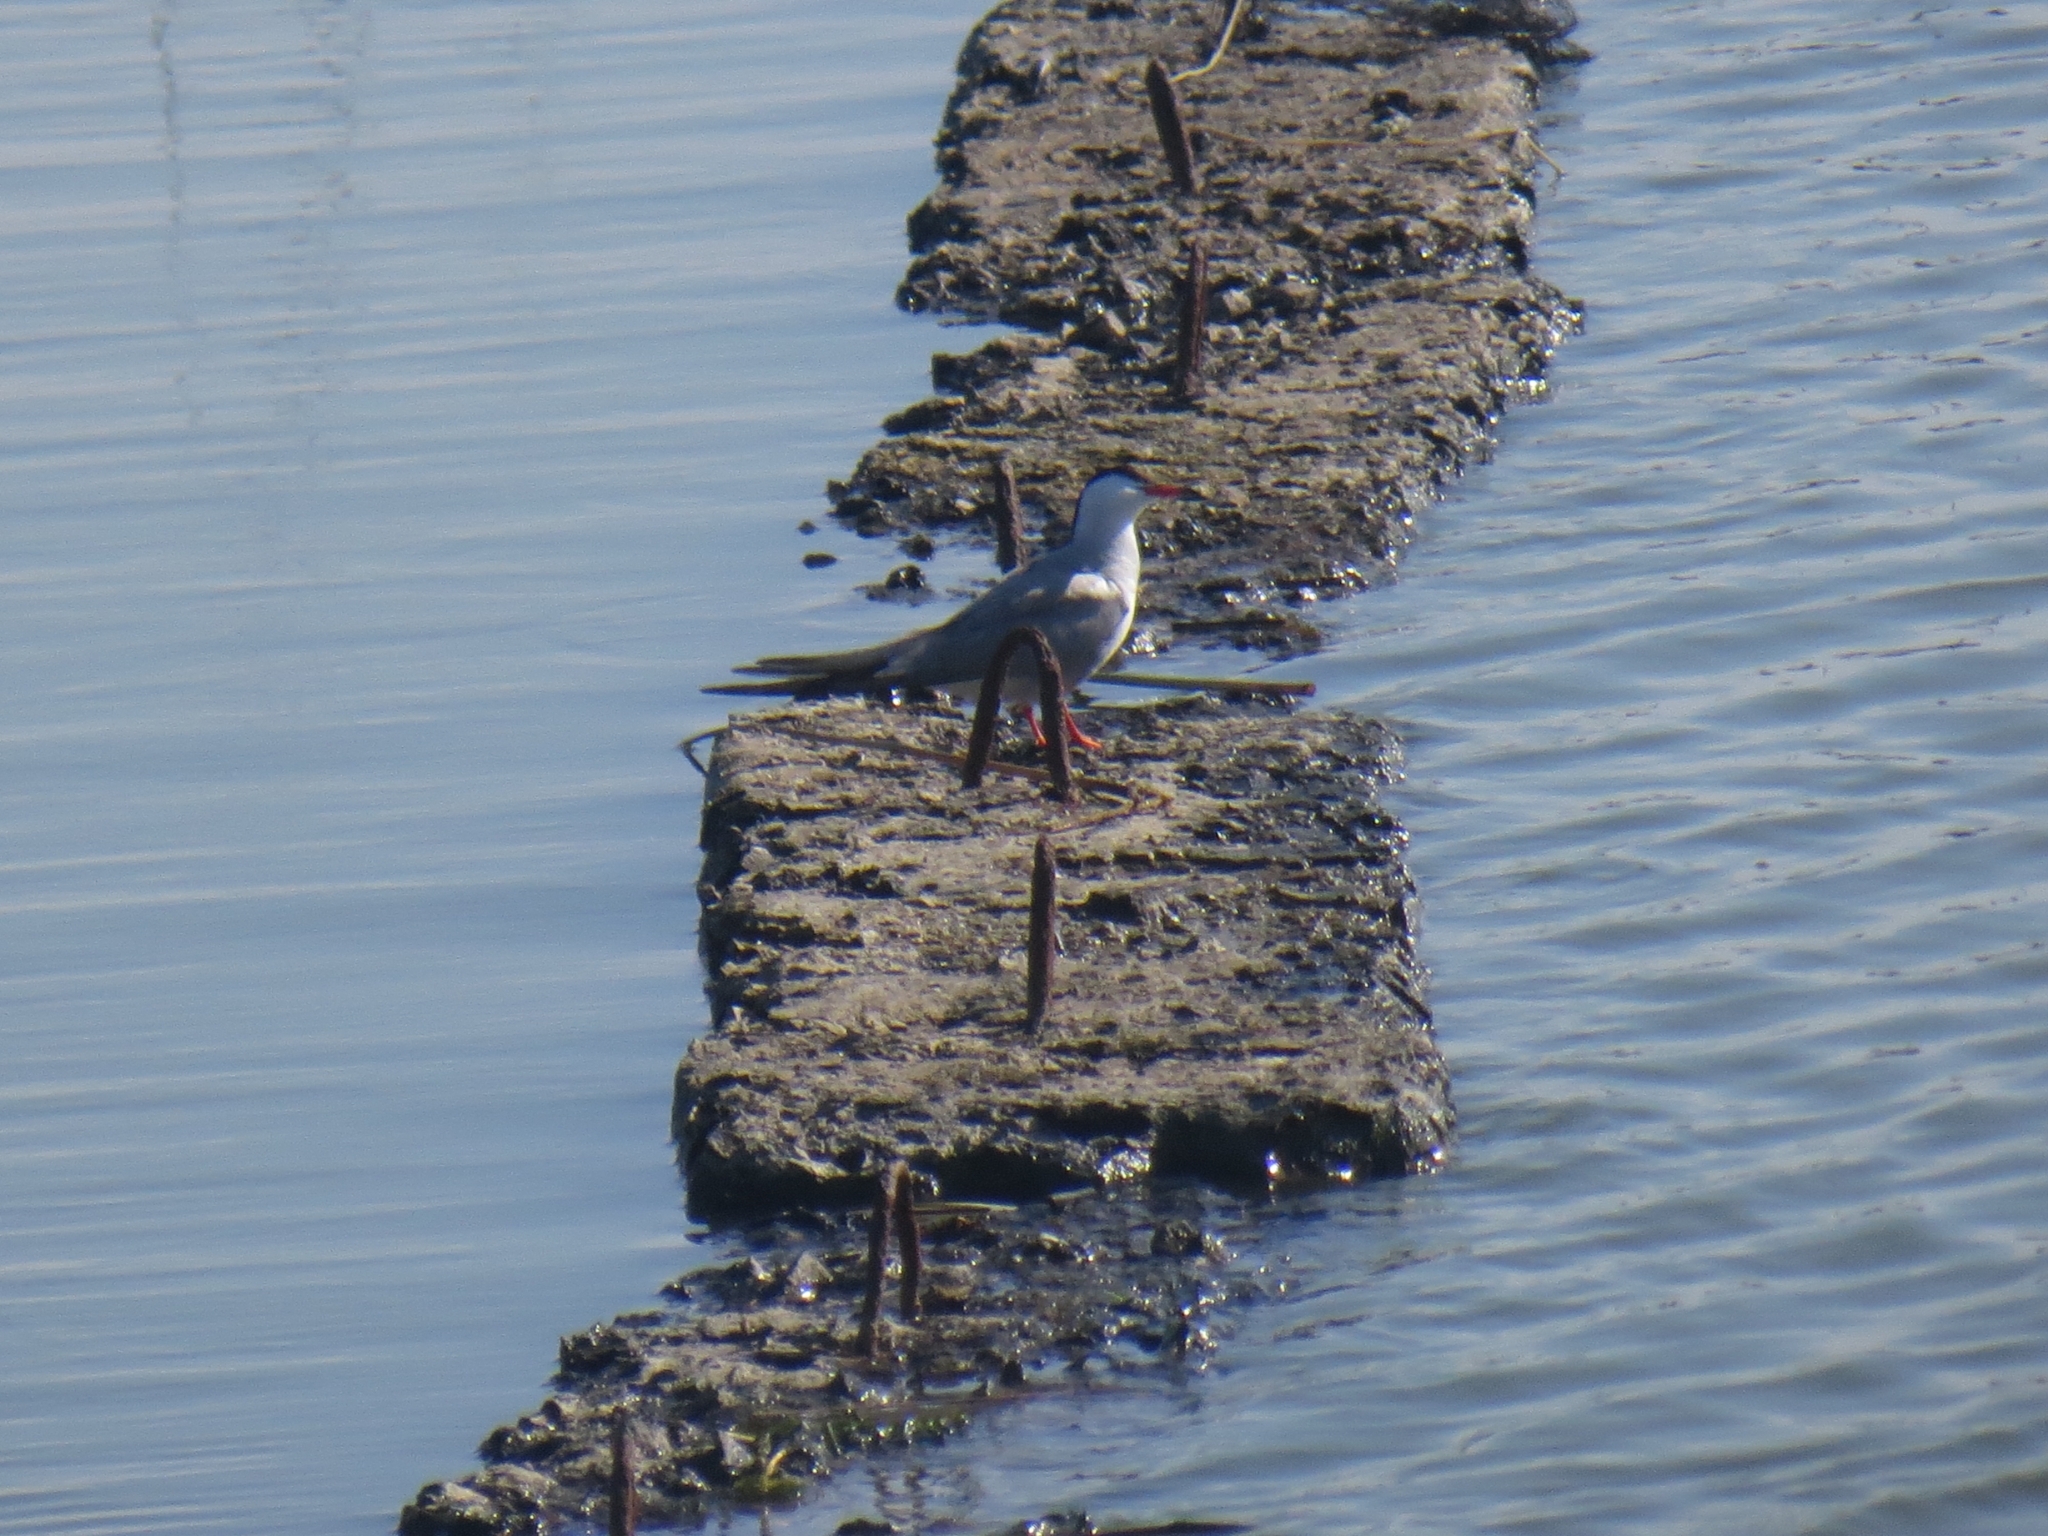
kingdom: Animalia
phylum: Chordata
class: Aves
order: Charadriiformes
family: Laridae
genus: Sterna
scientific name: Sterna hirundo
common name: Common tern
